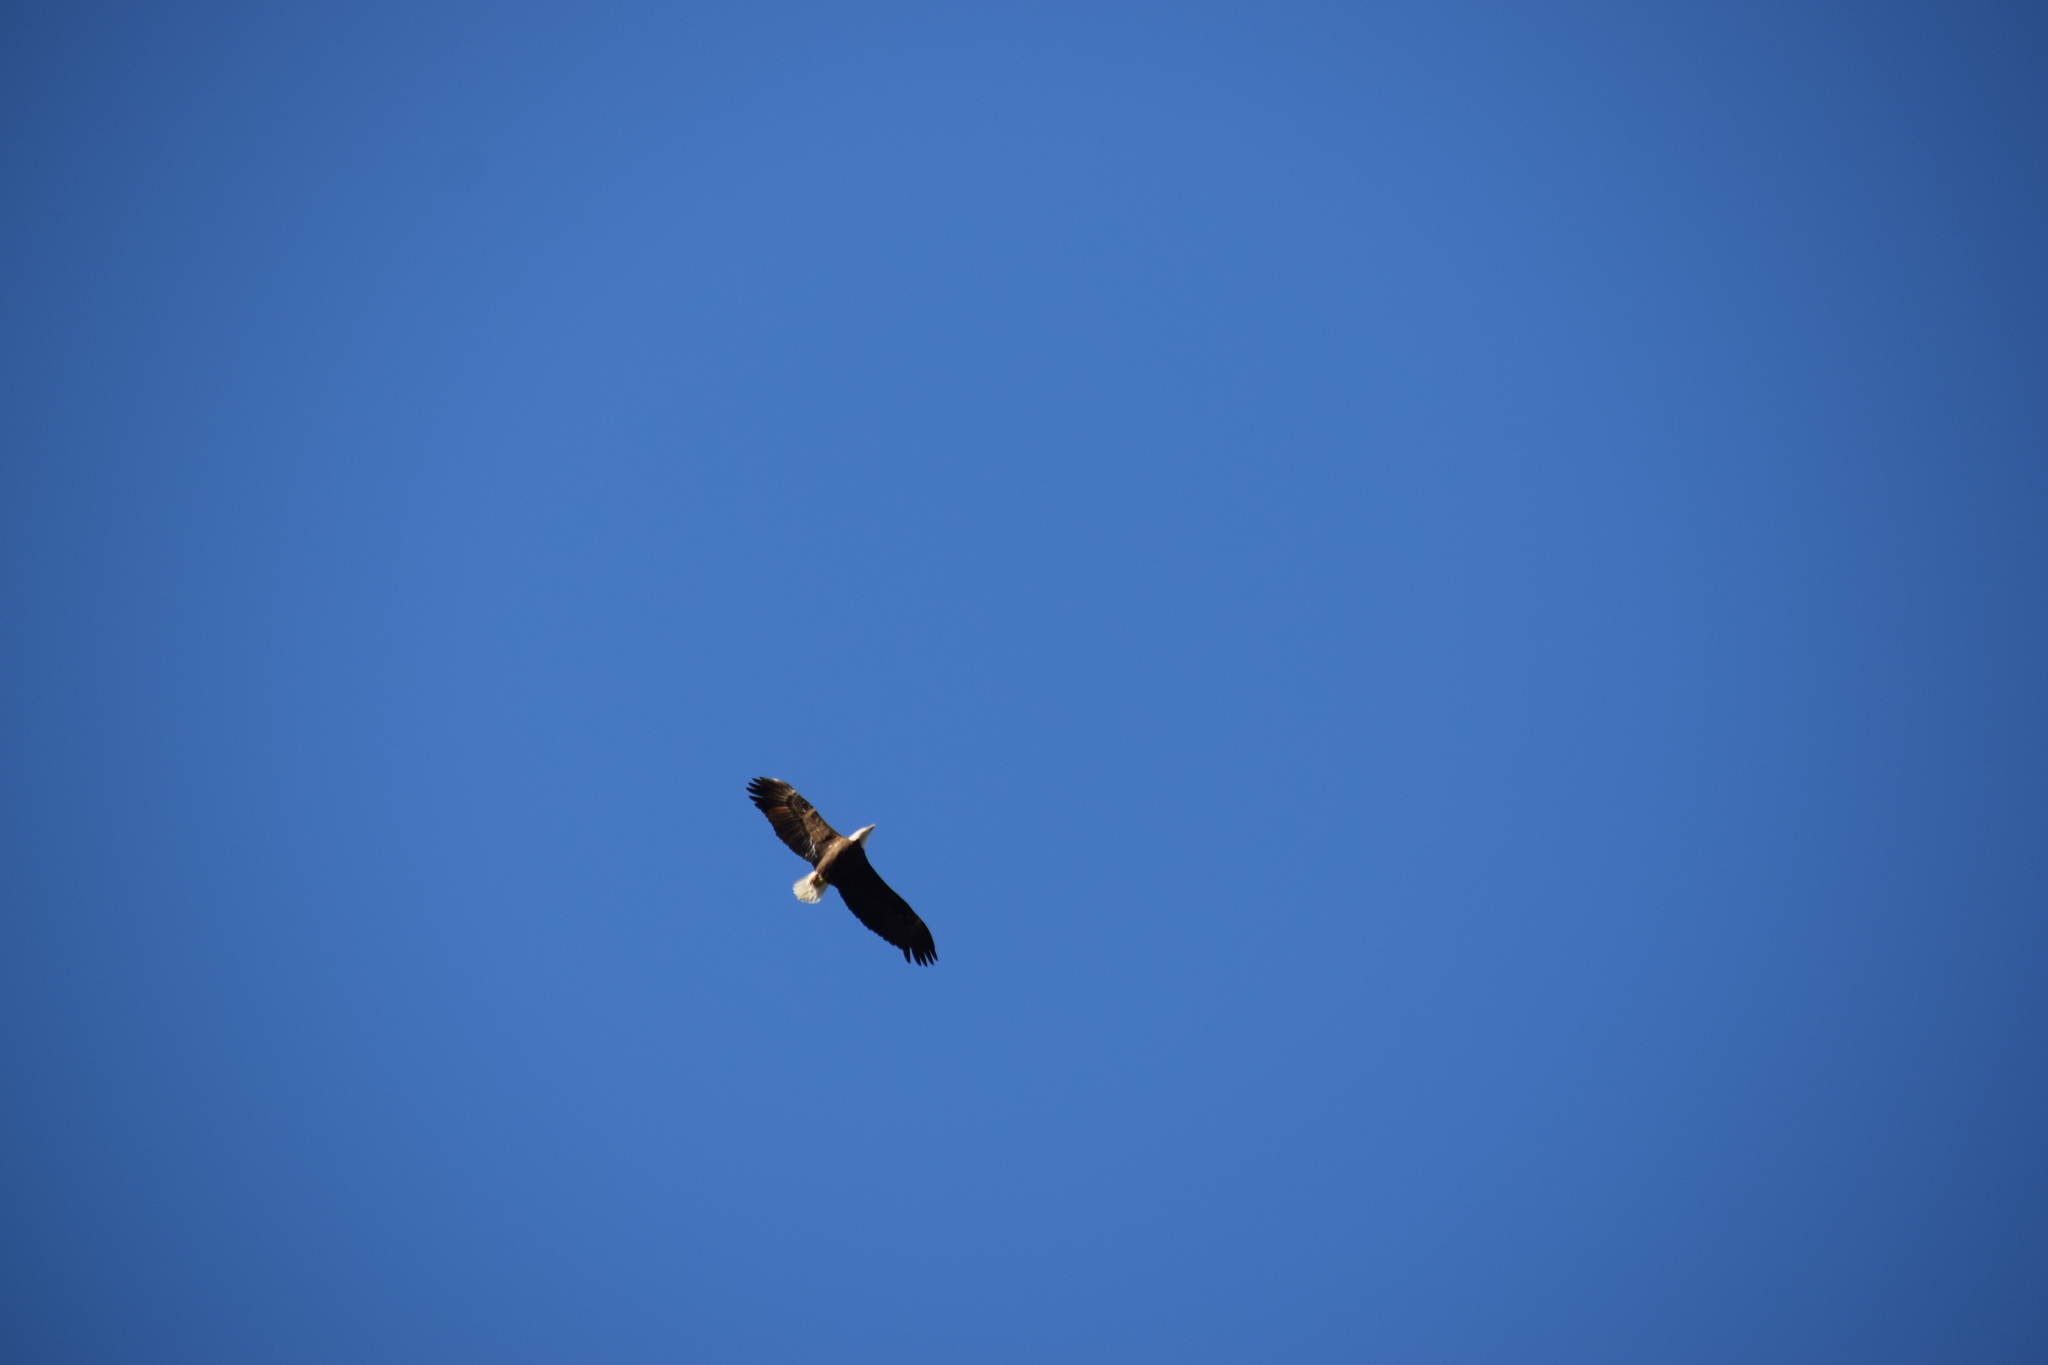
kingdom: Animalia
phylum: Chordata
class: Aves
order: Accipitriformes
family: Accipitridae
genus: Haliaeetus
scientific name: Haliaeetus leucocephalus
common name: Bald eagle
